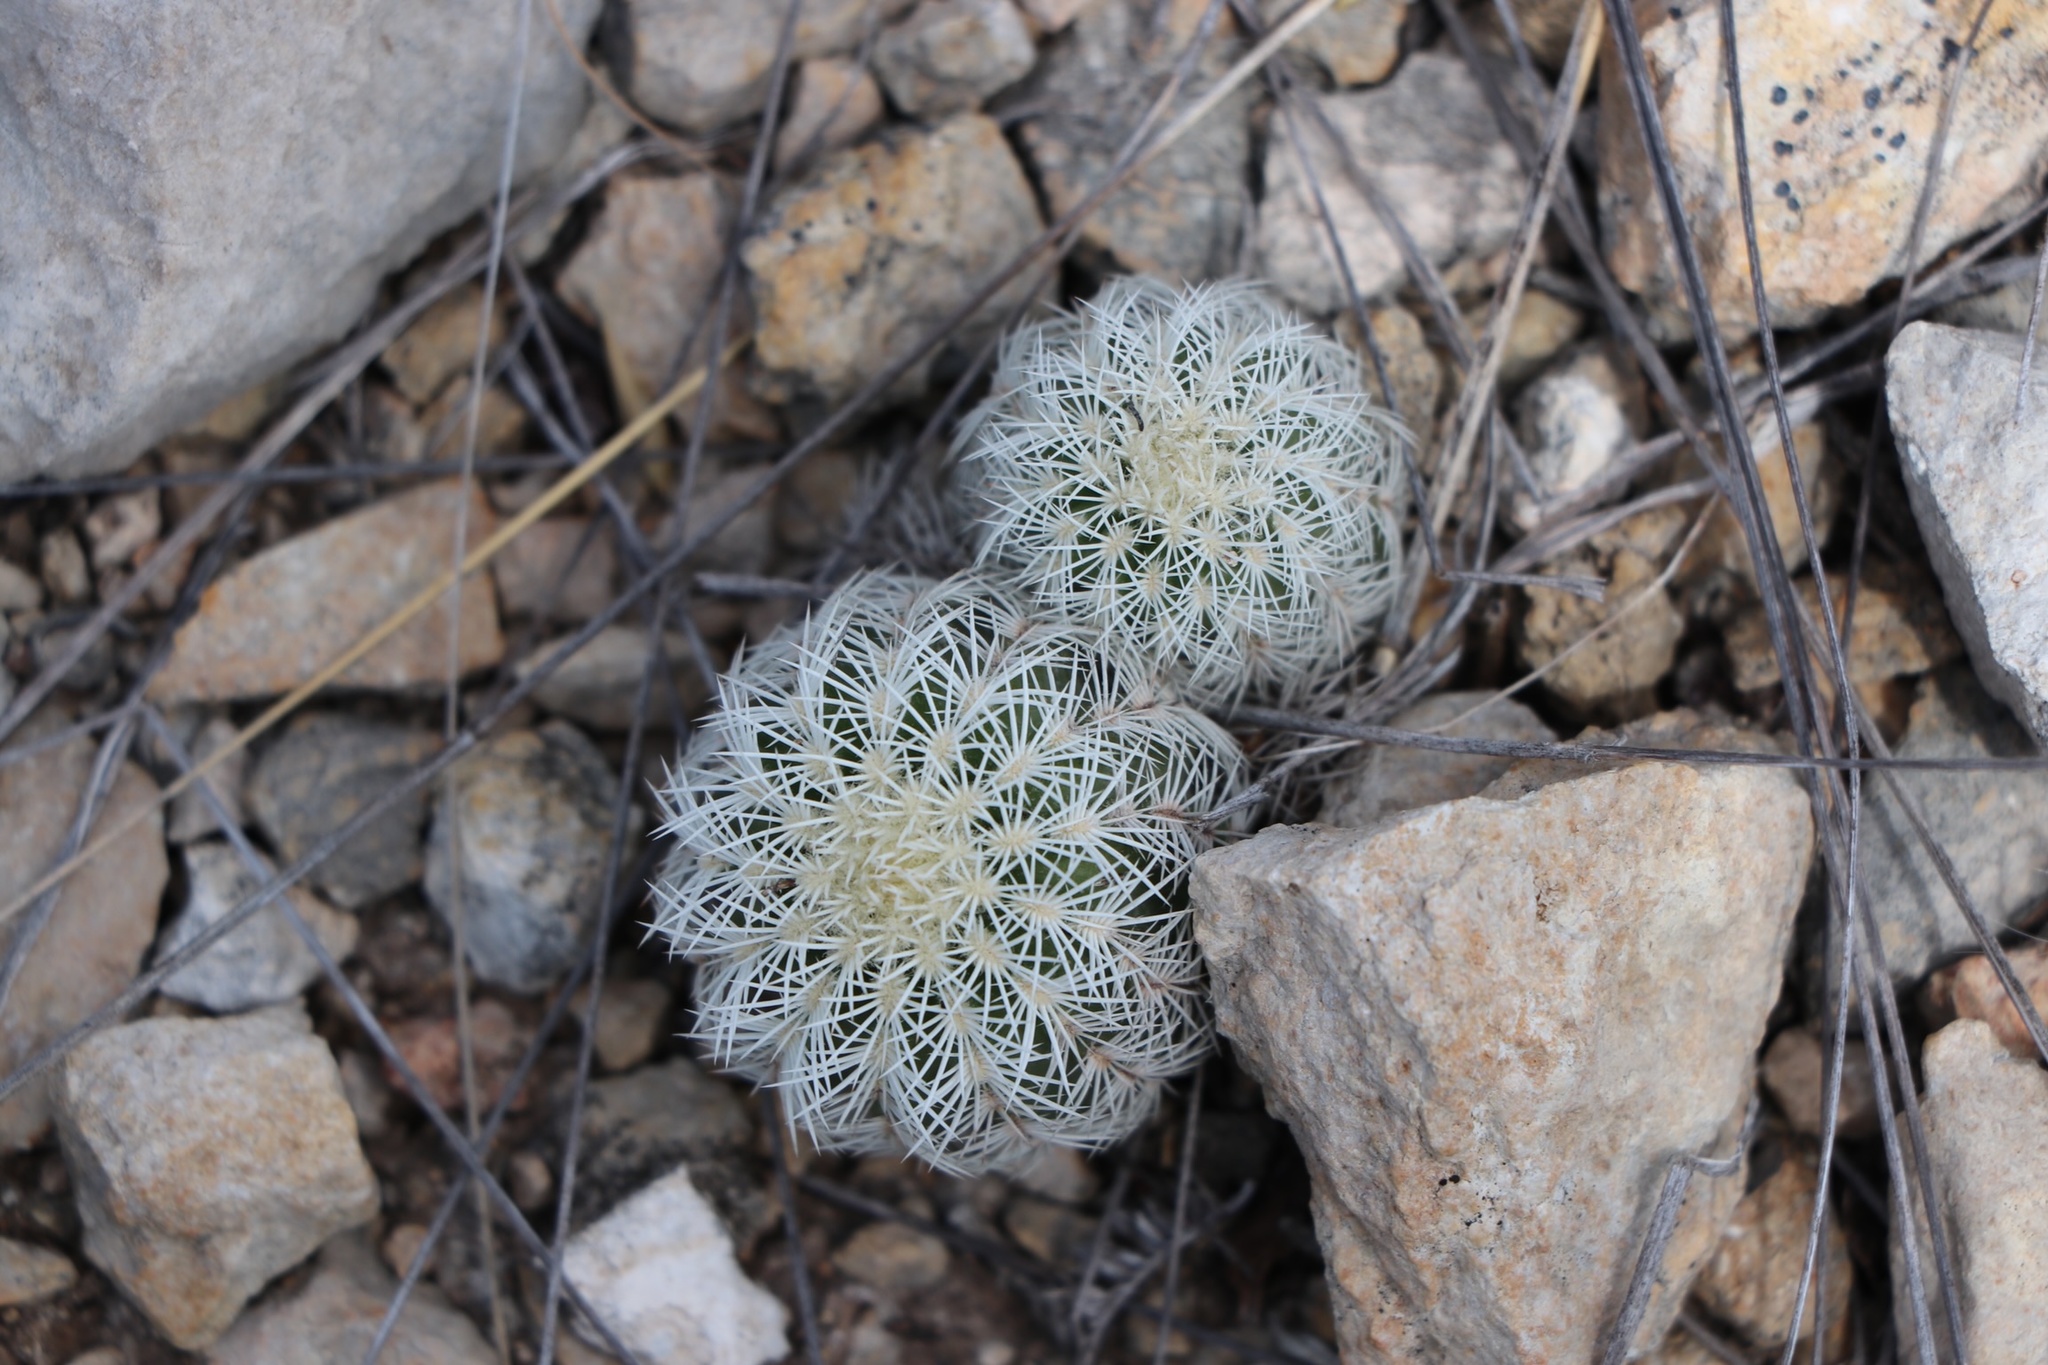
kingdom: Plantae
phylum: Tracheophyta
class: Magnoliopsida
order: Caryophyllales
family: Cactaceae
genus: Echinocereus
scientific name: Echinocereus reichenbachii
